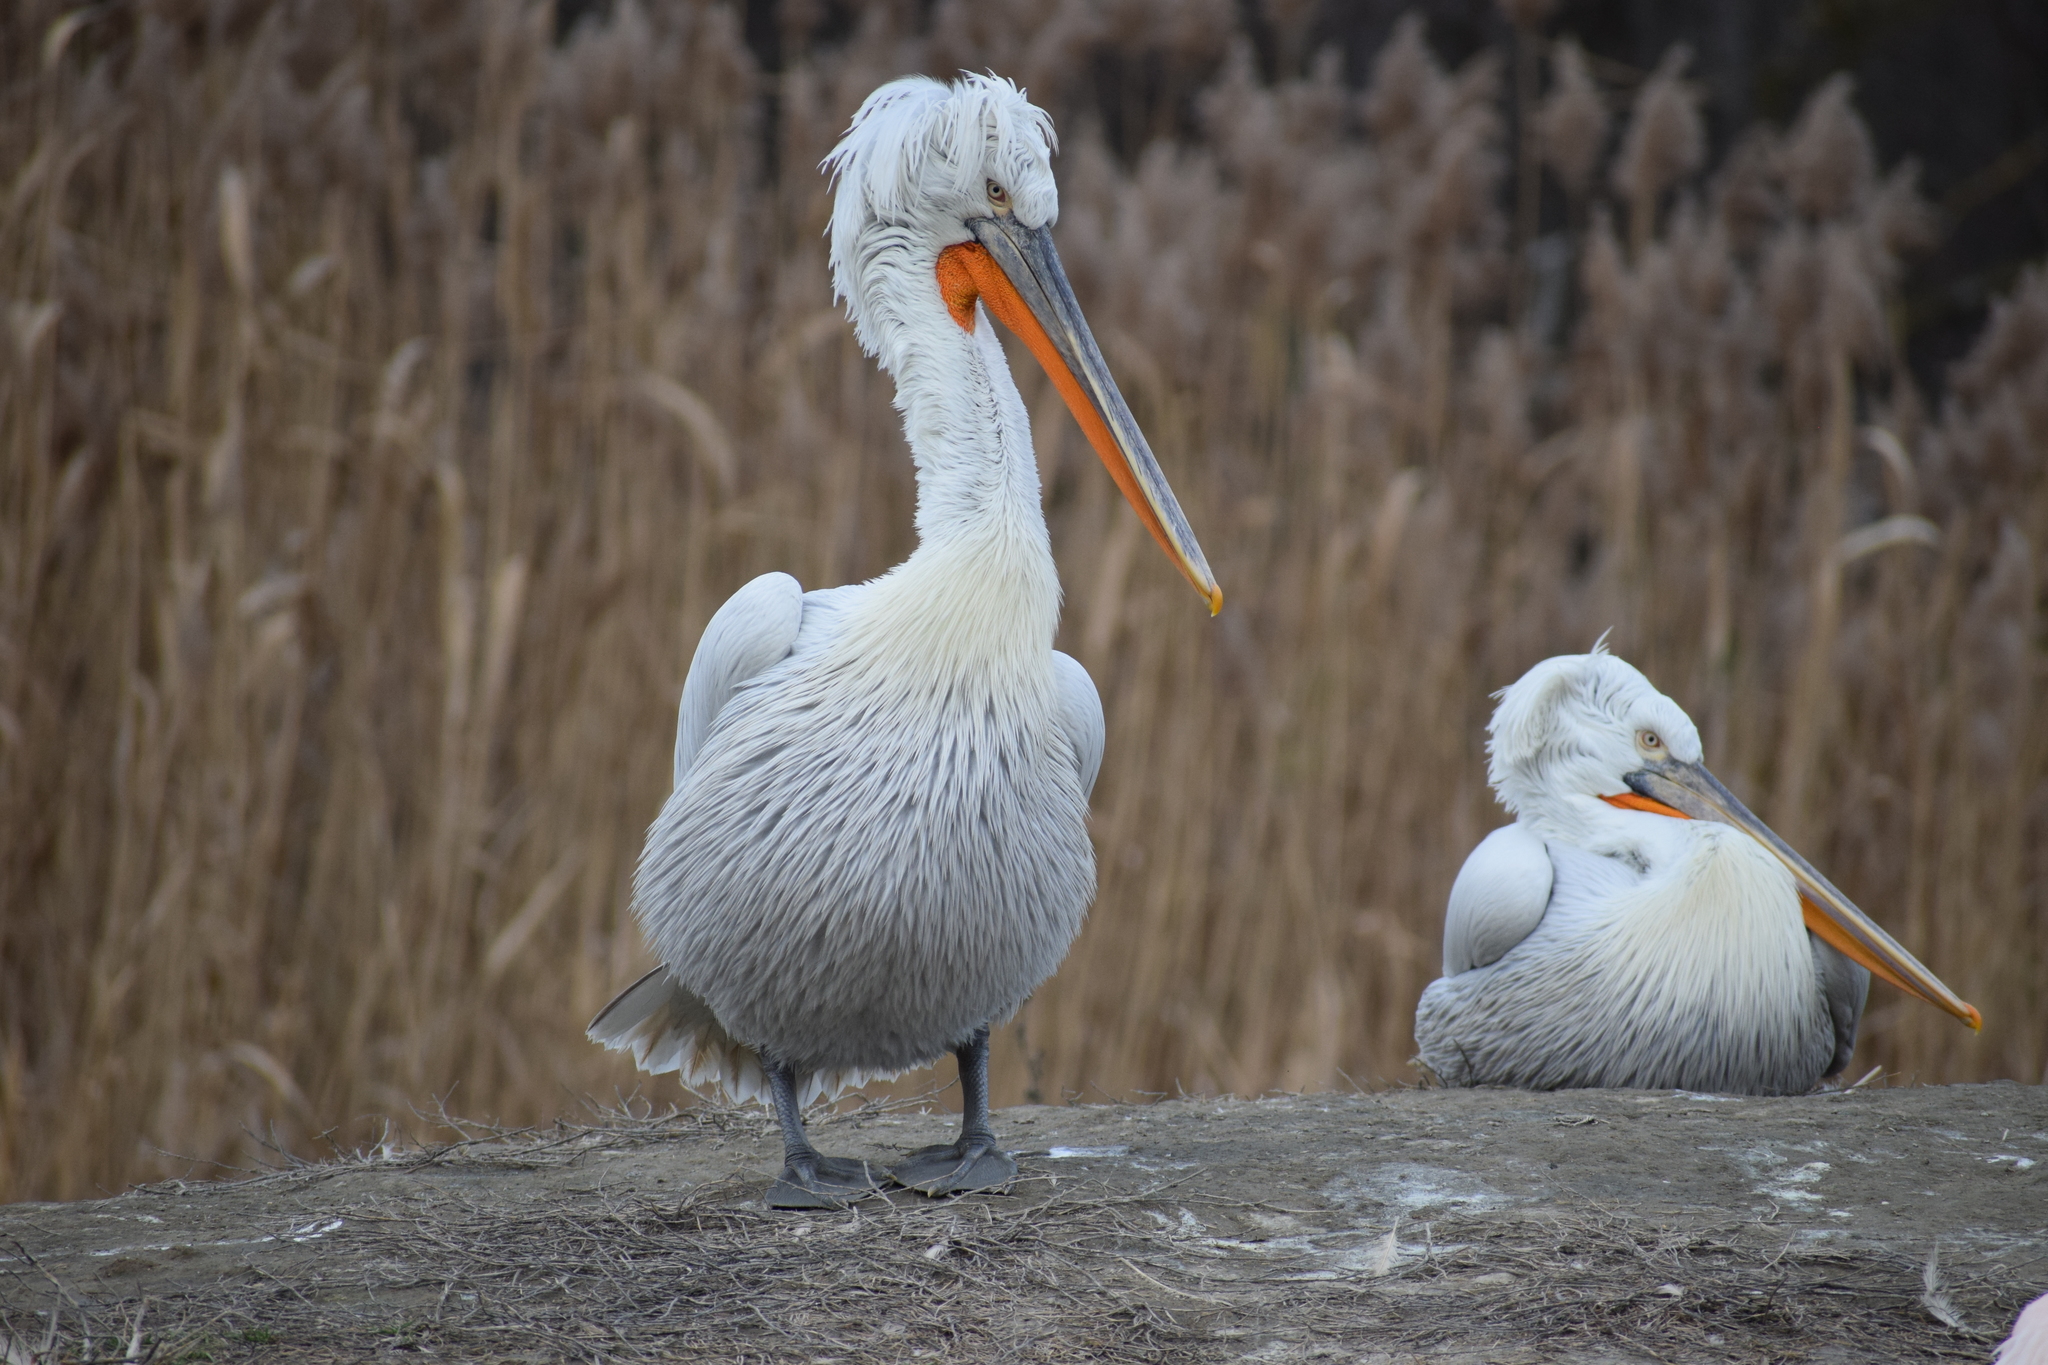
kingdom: Animalia
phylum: Chordata
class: Aves
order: Pelecaniformes
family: Pelecanidae
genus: Pelecanus
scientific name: Pelecanus crispus
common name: Dalmatian pelican
